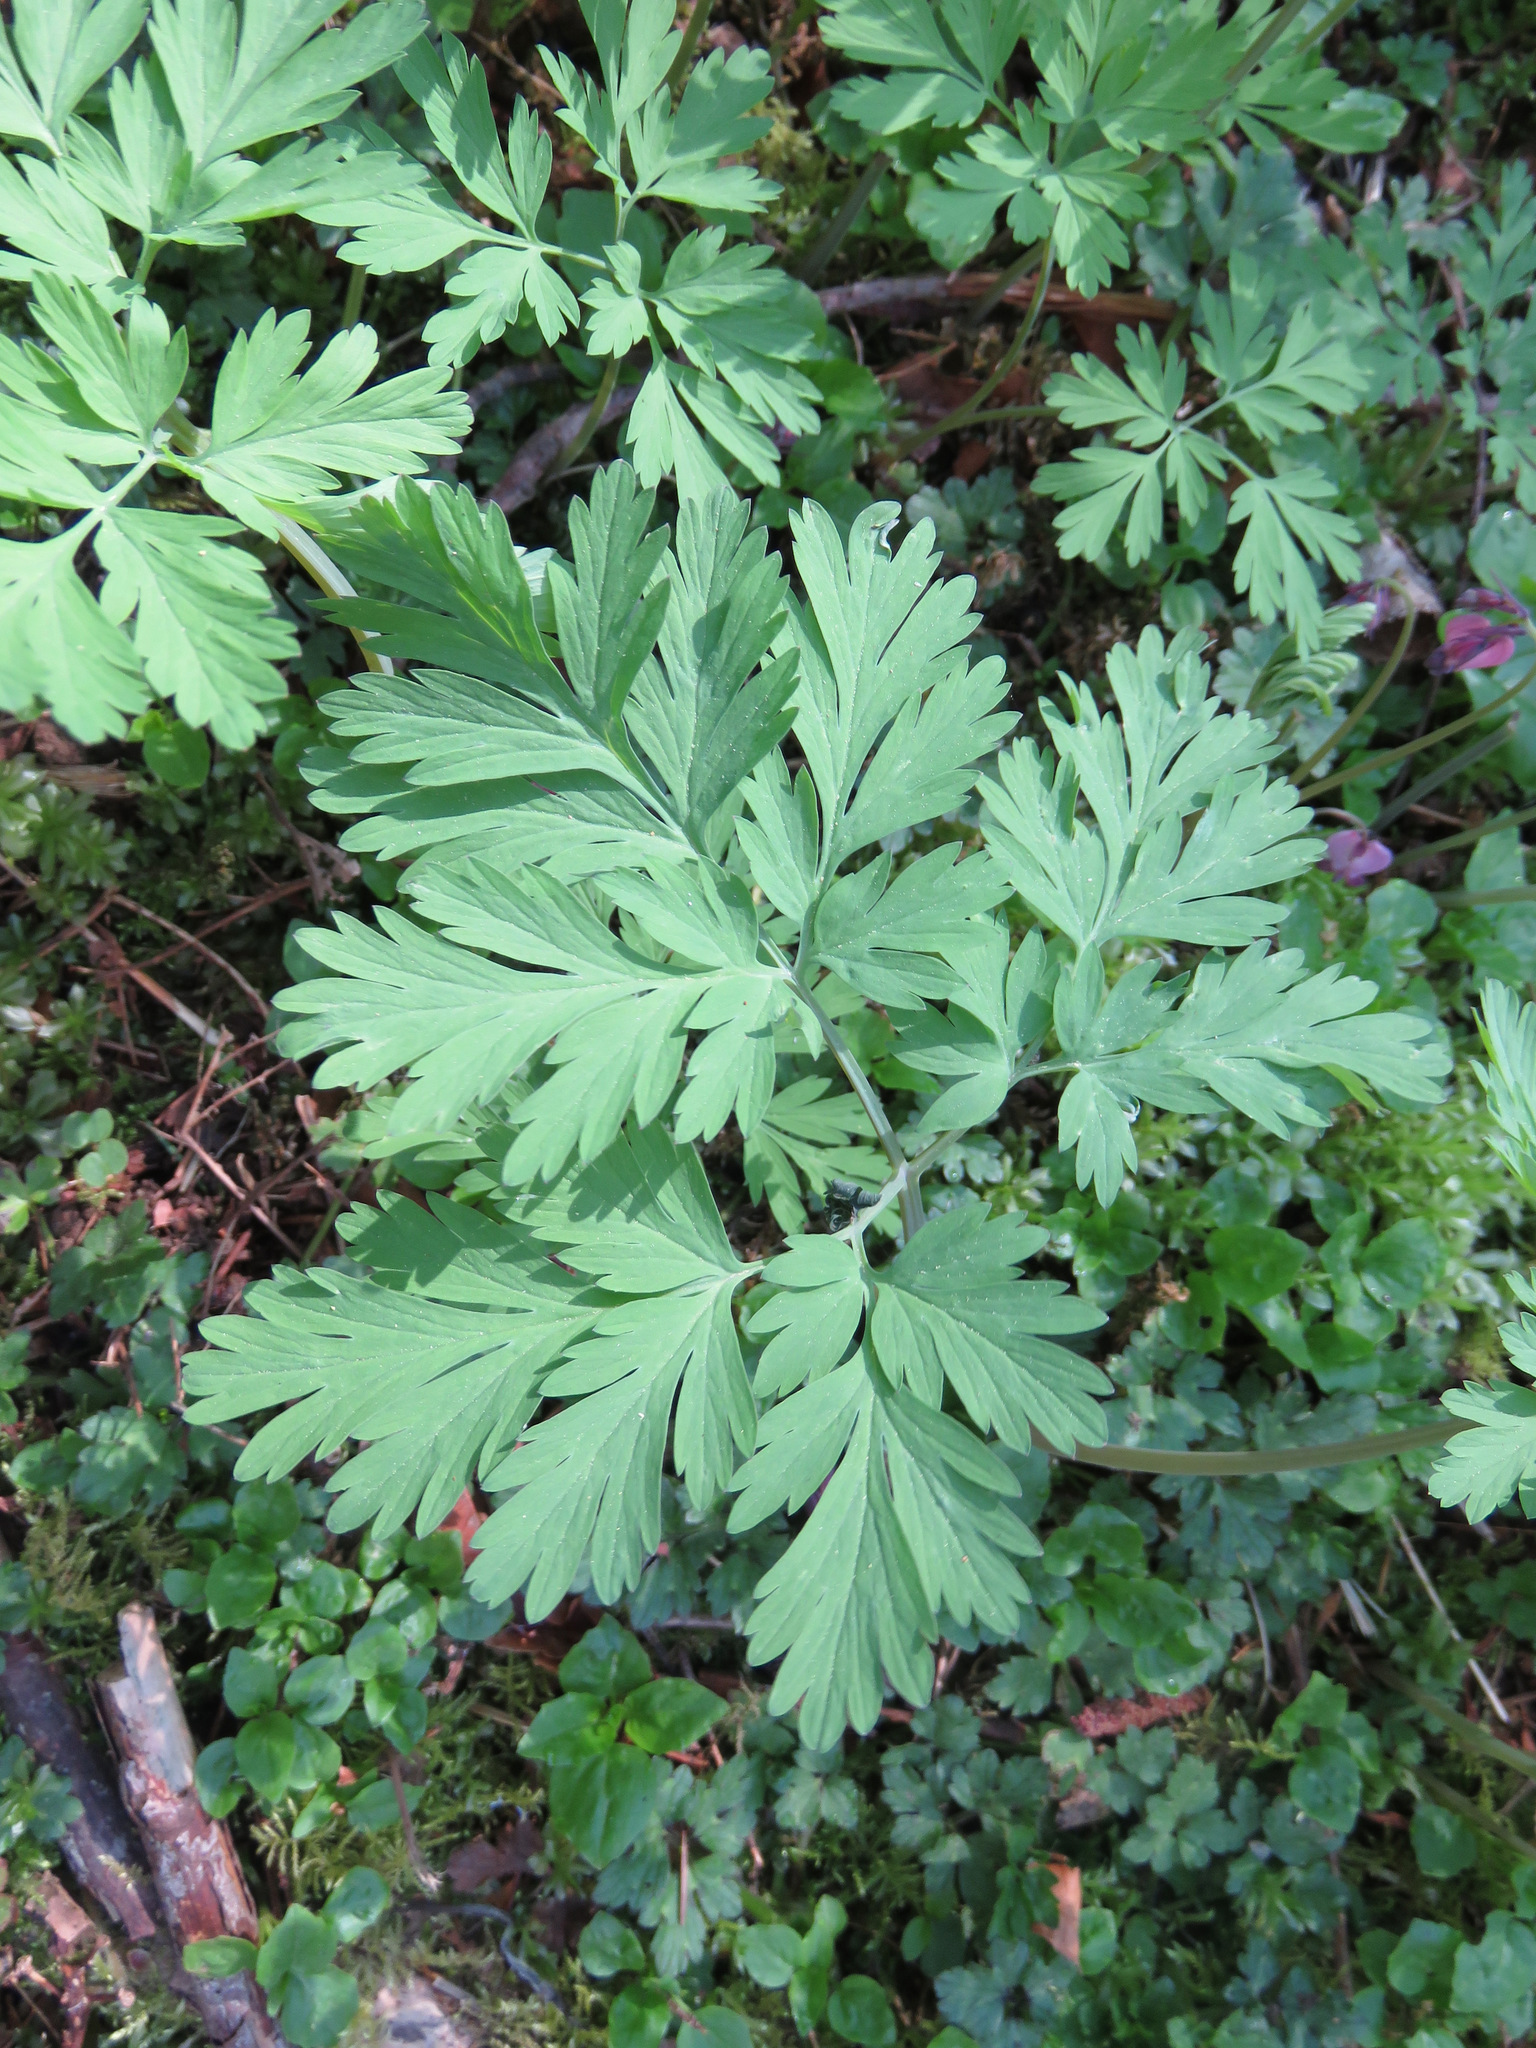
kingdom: Plantae
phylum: Tracheophyta
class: Magnoliopsida
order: Ranunculales
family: Papaveraceae
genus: Dicentra
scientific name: Dicentra formosa
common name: Bleeding-heart
